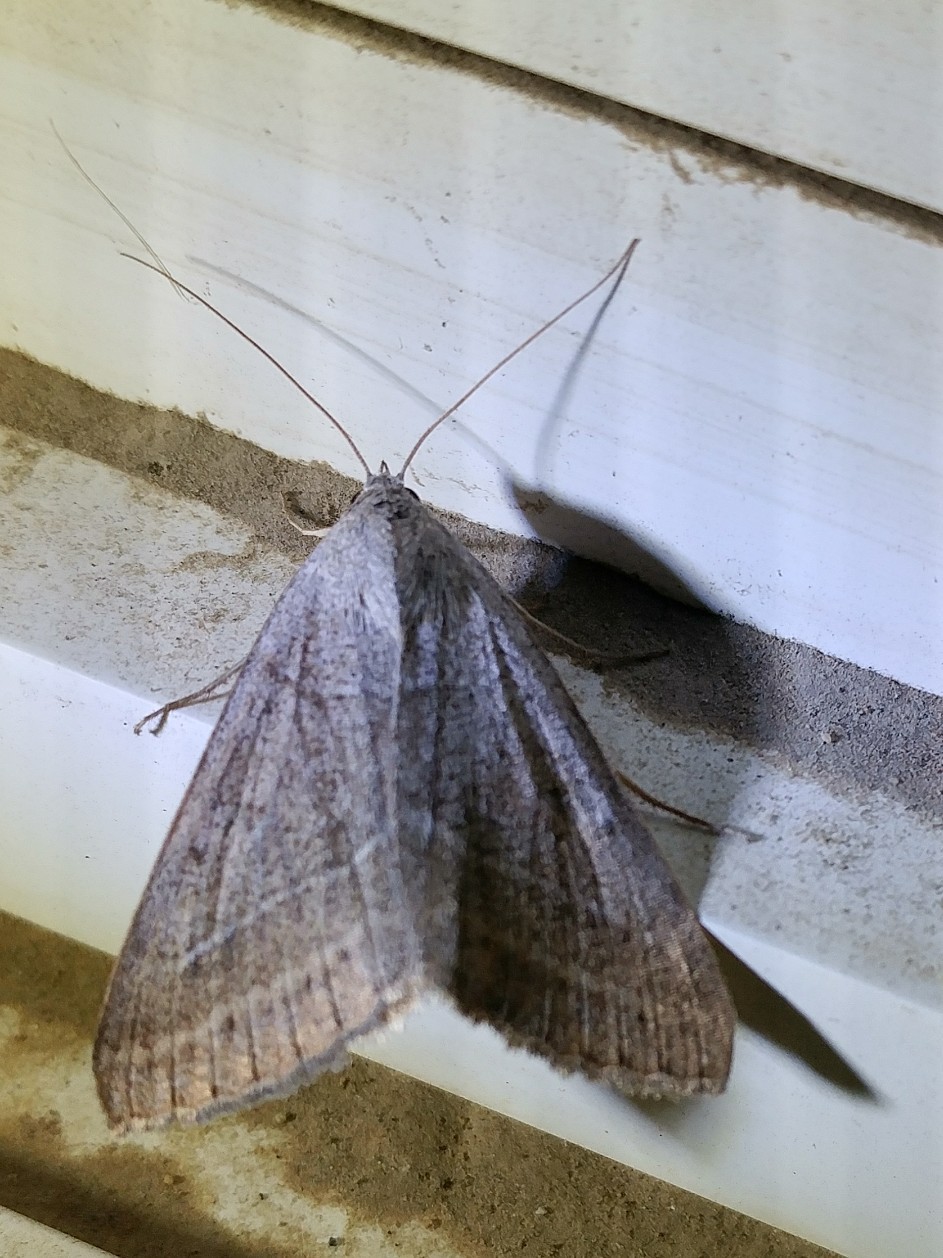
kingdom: Animalia
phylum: Arthropoda
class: Insecta
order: Lepidoptera
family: Erebidae
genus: Caenurgia
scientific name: Caenurgia togataria
